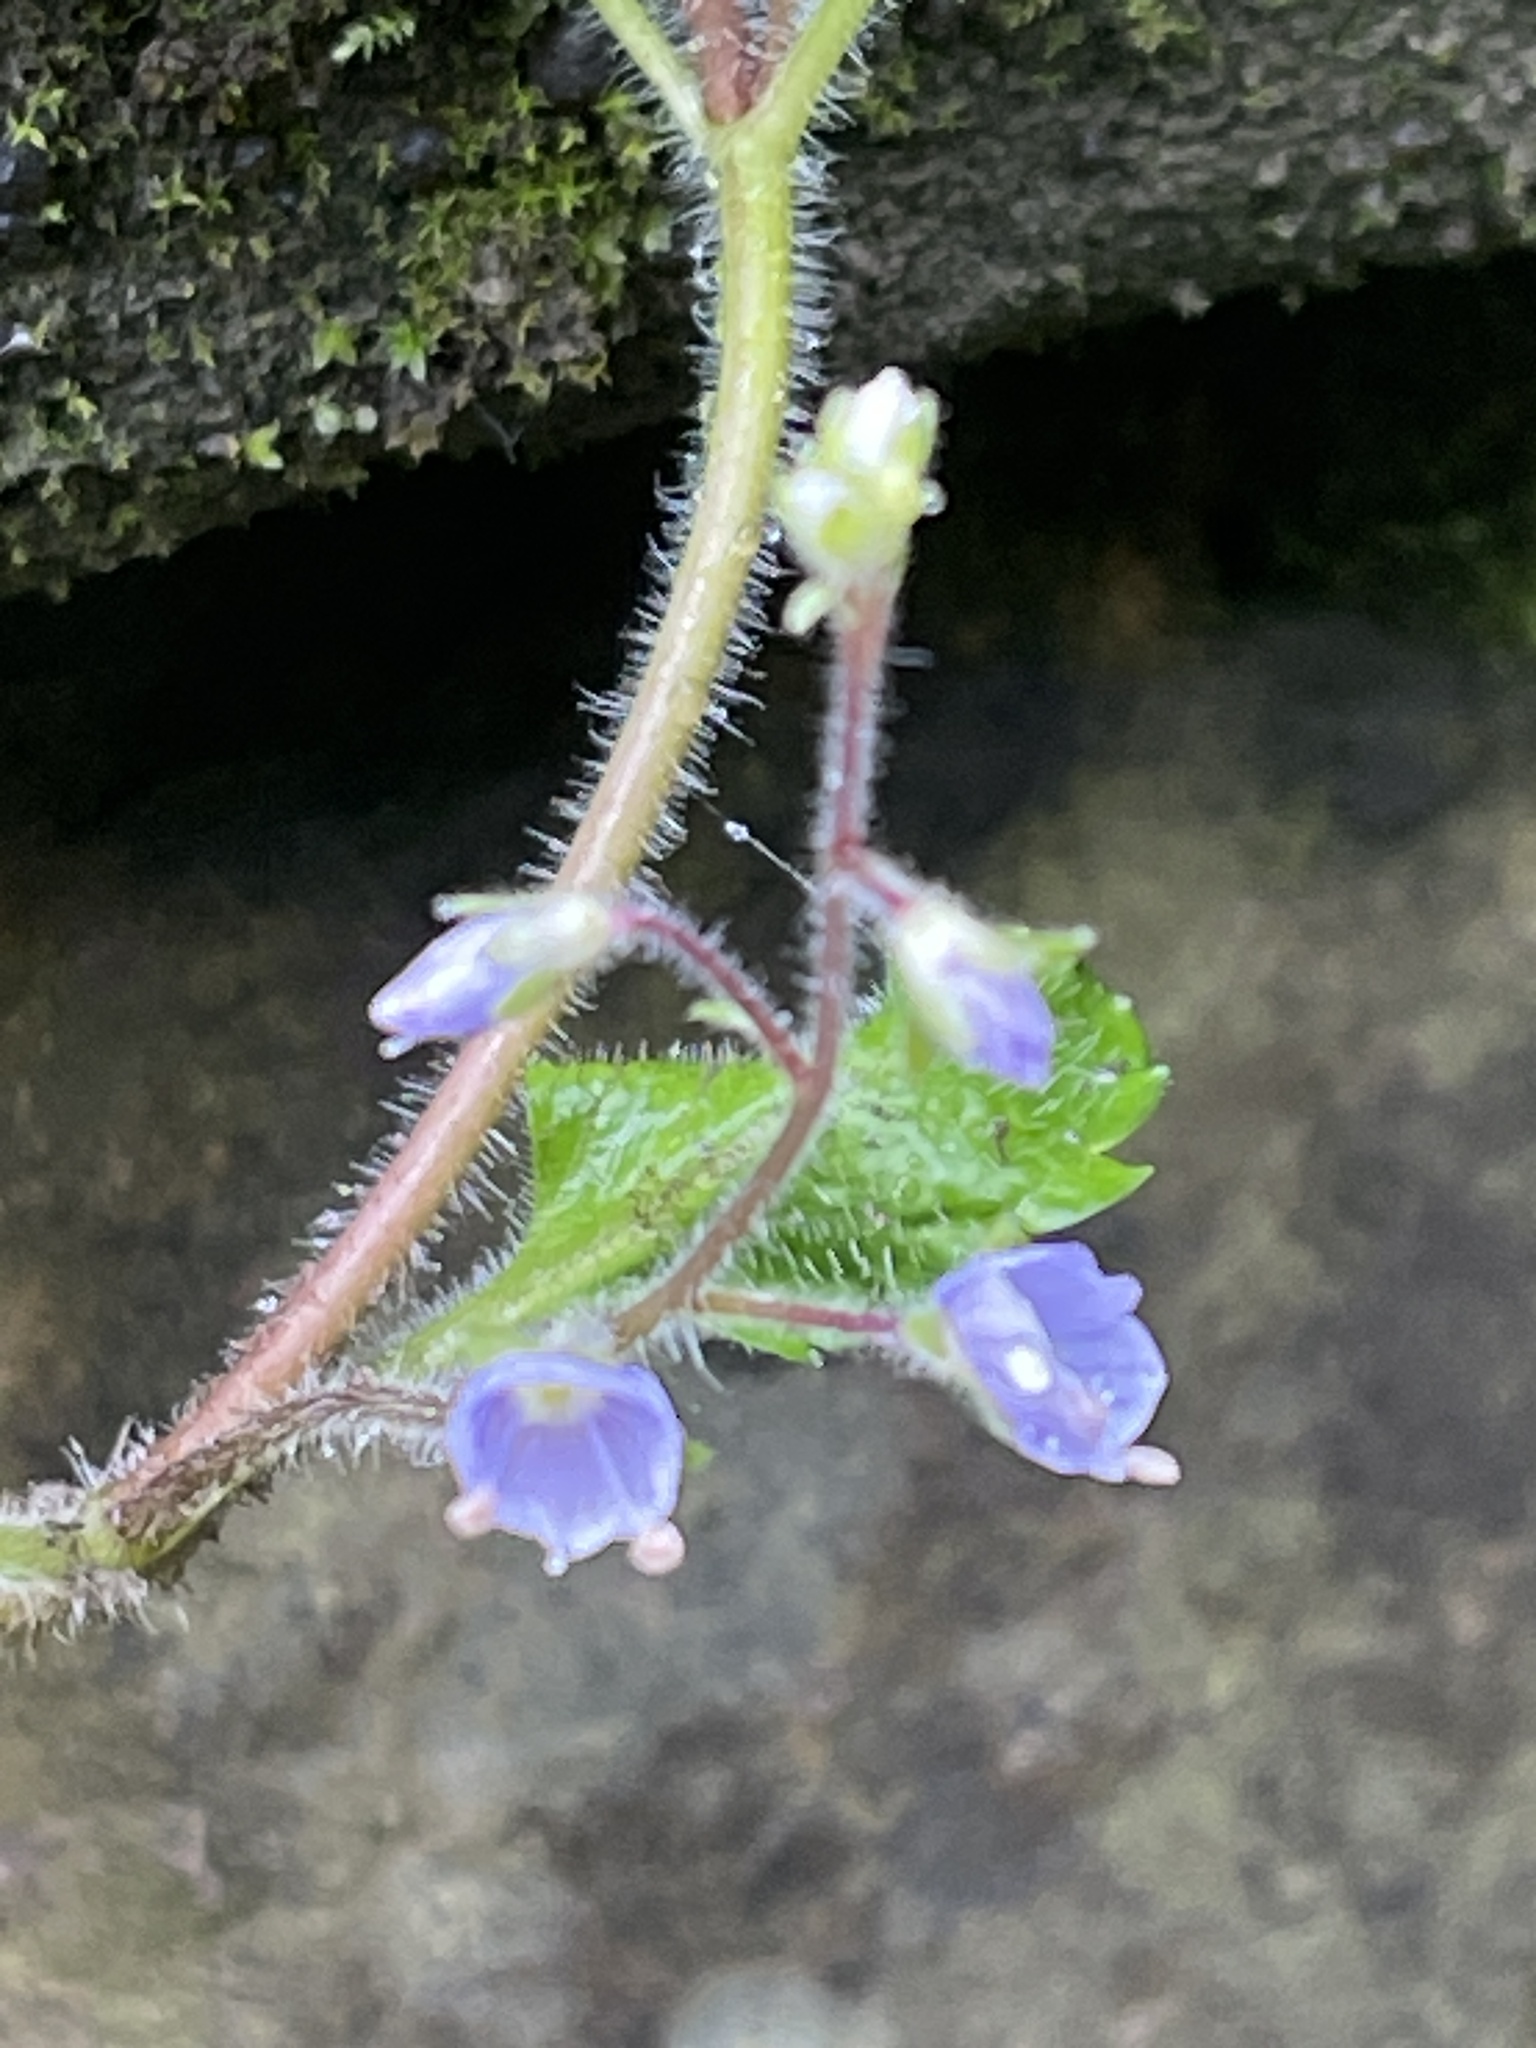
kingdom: Plantae
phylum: Tracheophyta
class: Magnoliopsida
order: Lamiales
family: Plantaginaceae
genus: Veronica
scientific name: Veronica montana
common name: Wood speedwell
